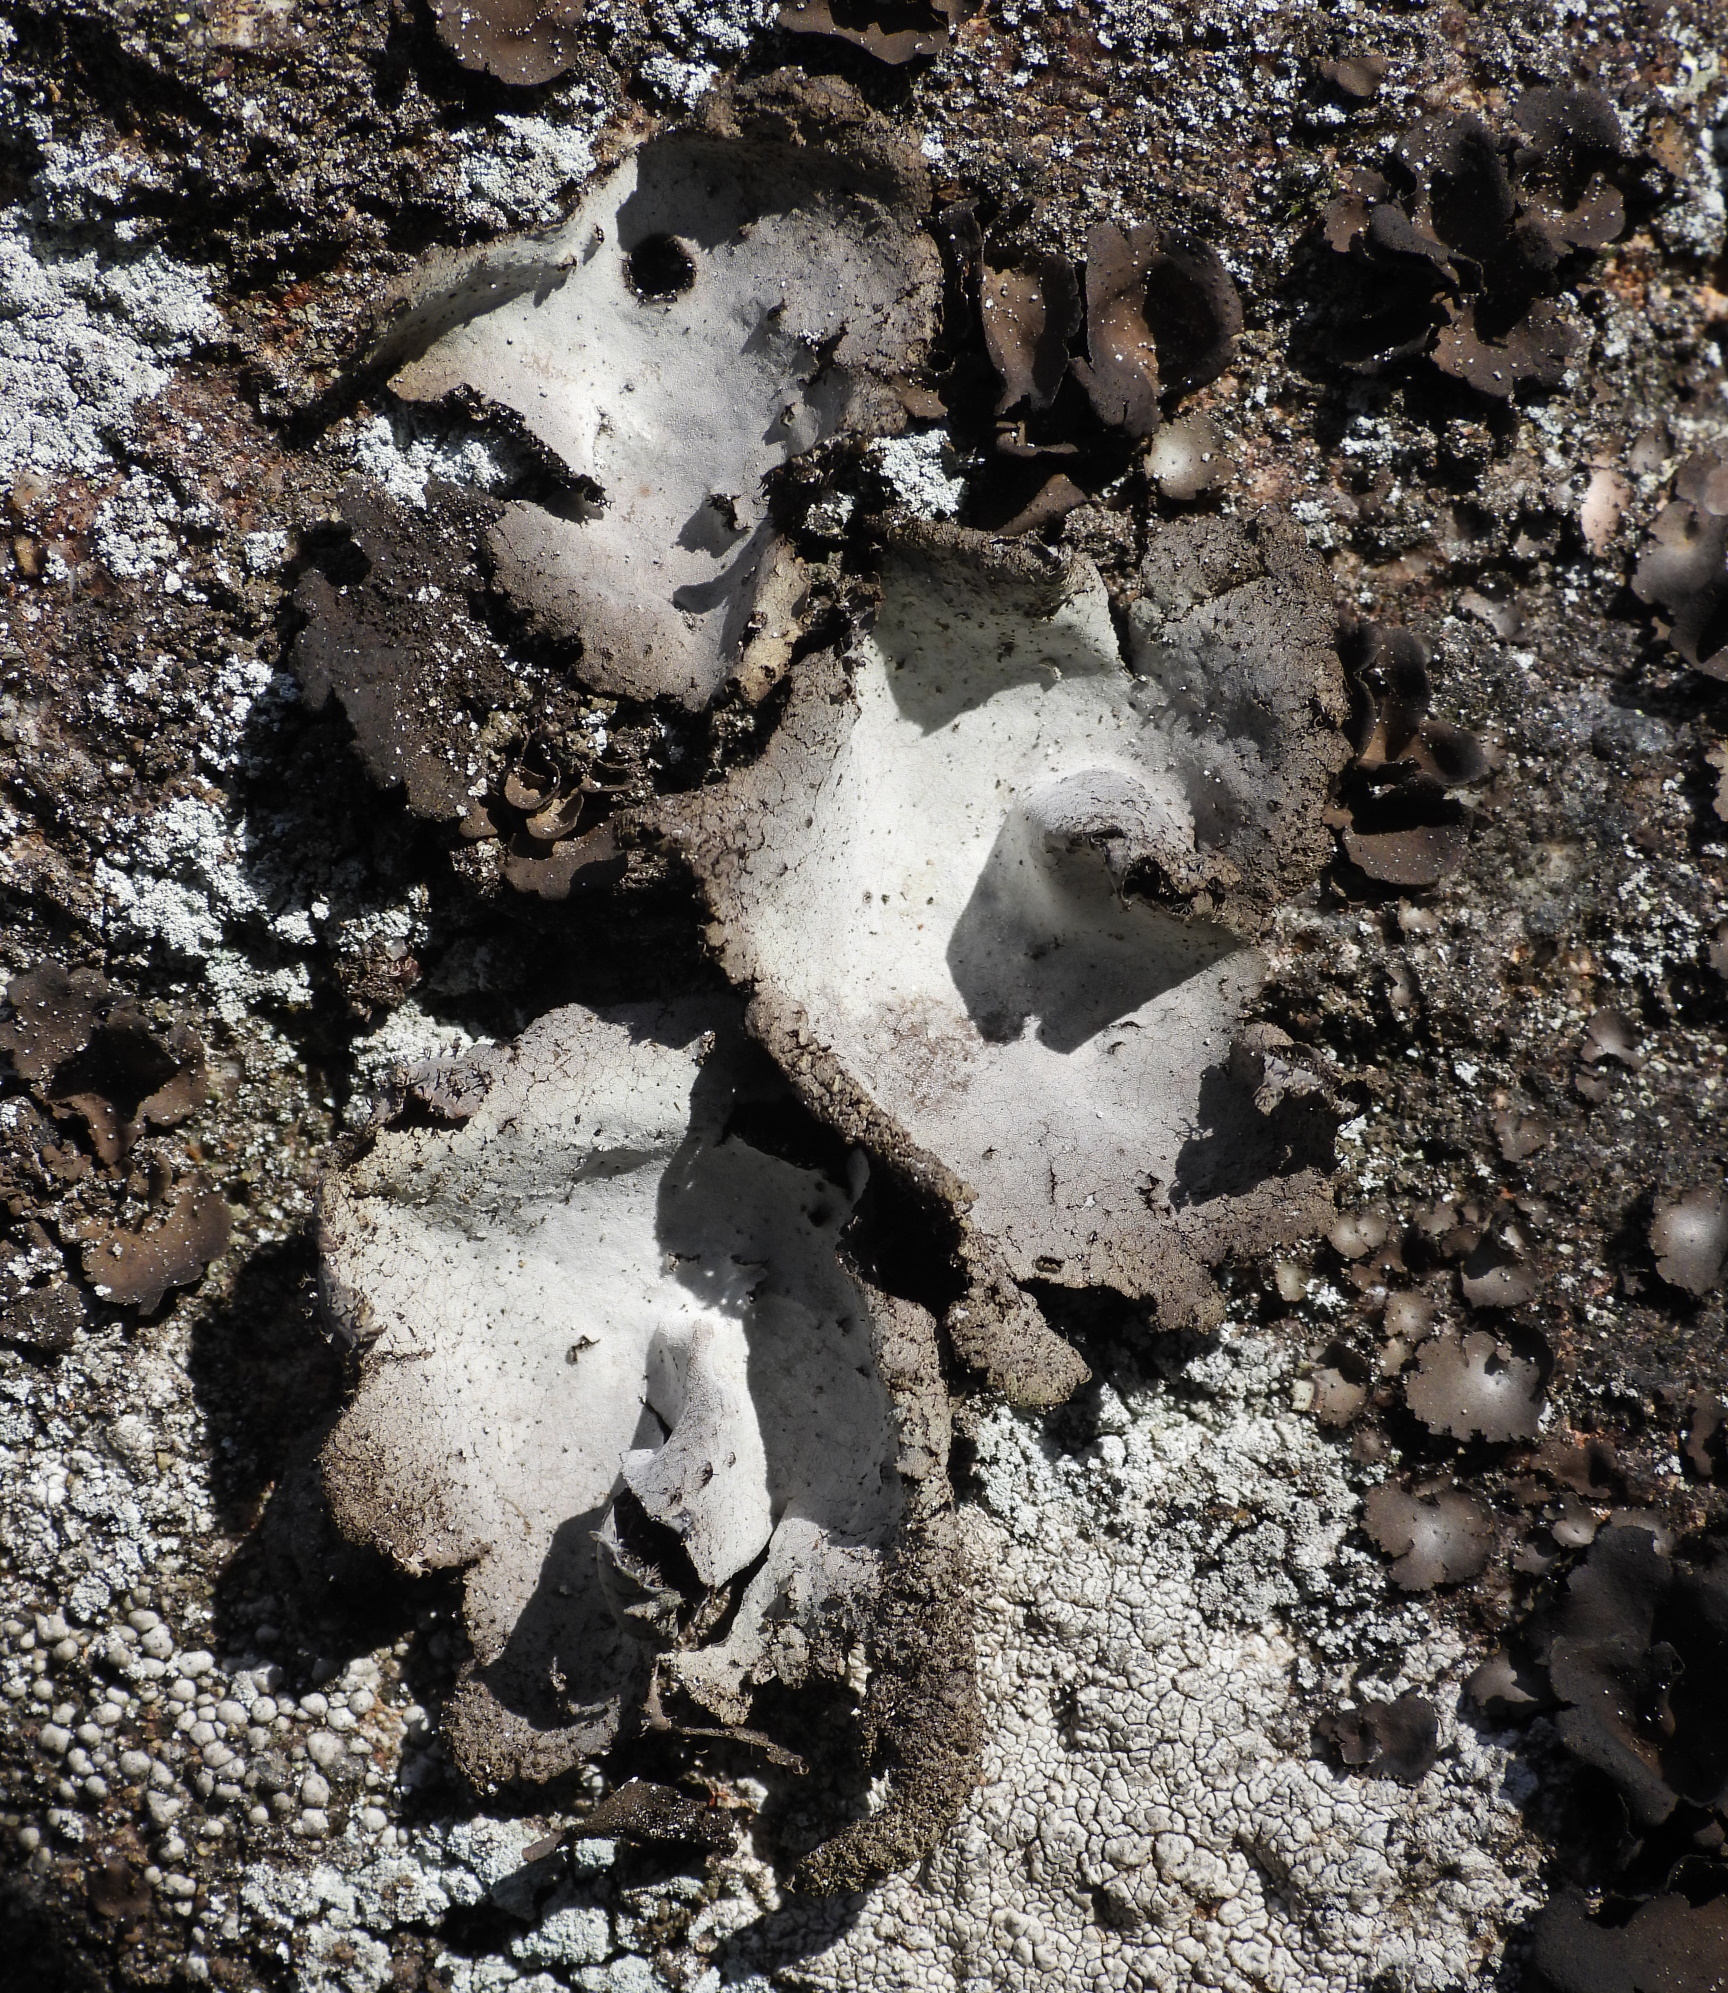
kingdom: Fungi
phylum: Ascomycota
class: Lecanoromycetes
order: Umbilicariales
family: Umbilicariaceae
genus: Umbilicaria
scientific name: Umbilicaria hirsuta
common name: Granulating rocktripe lichen
